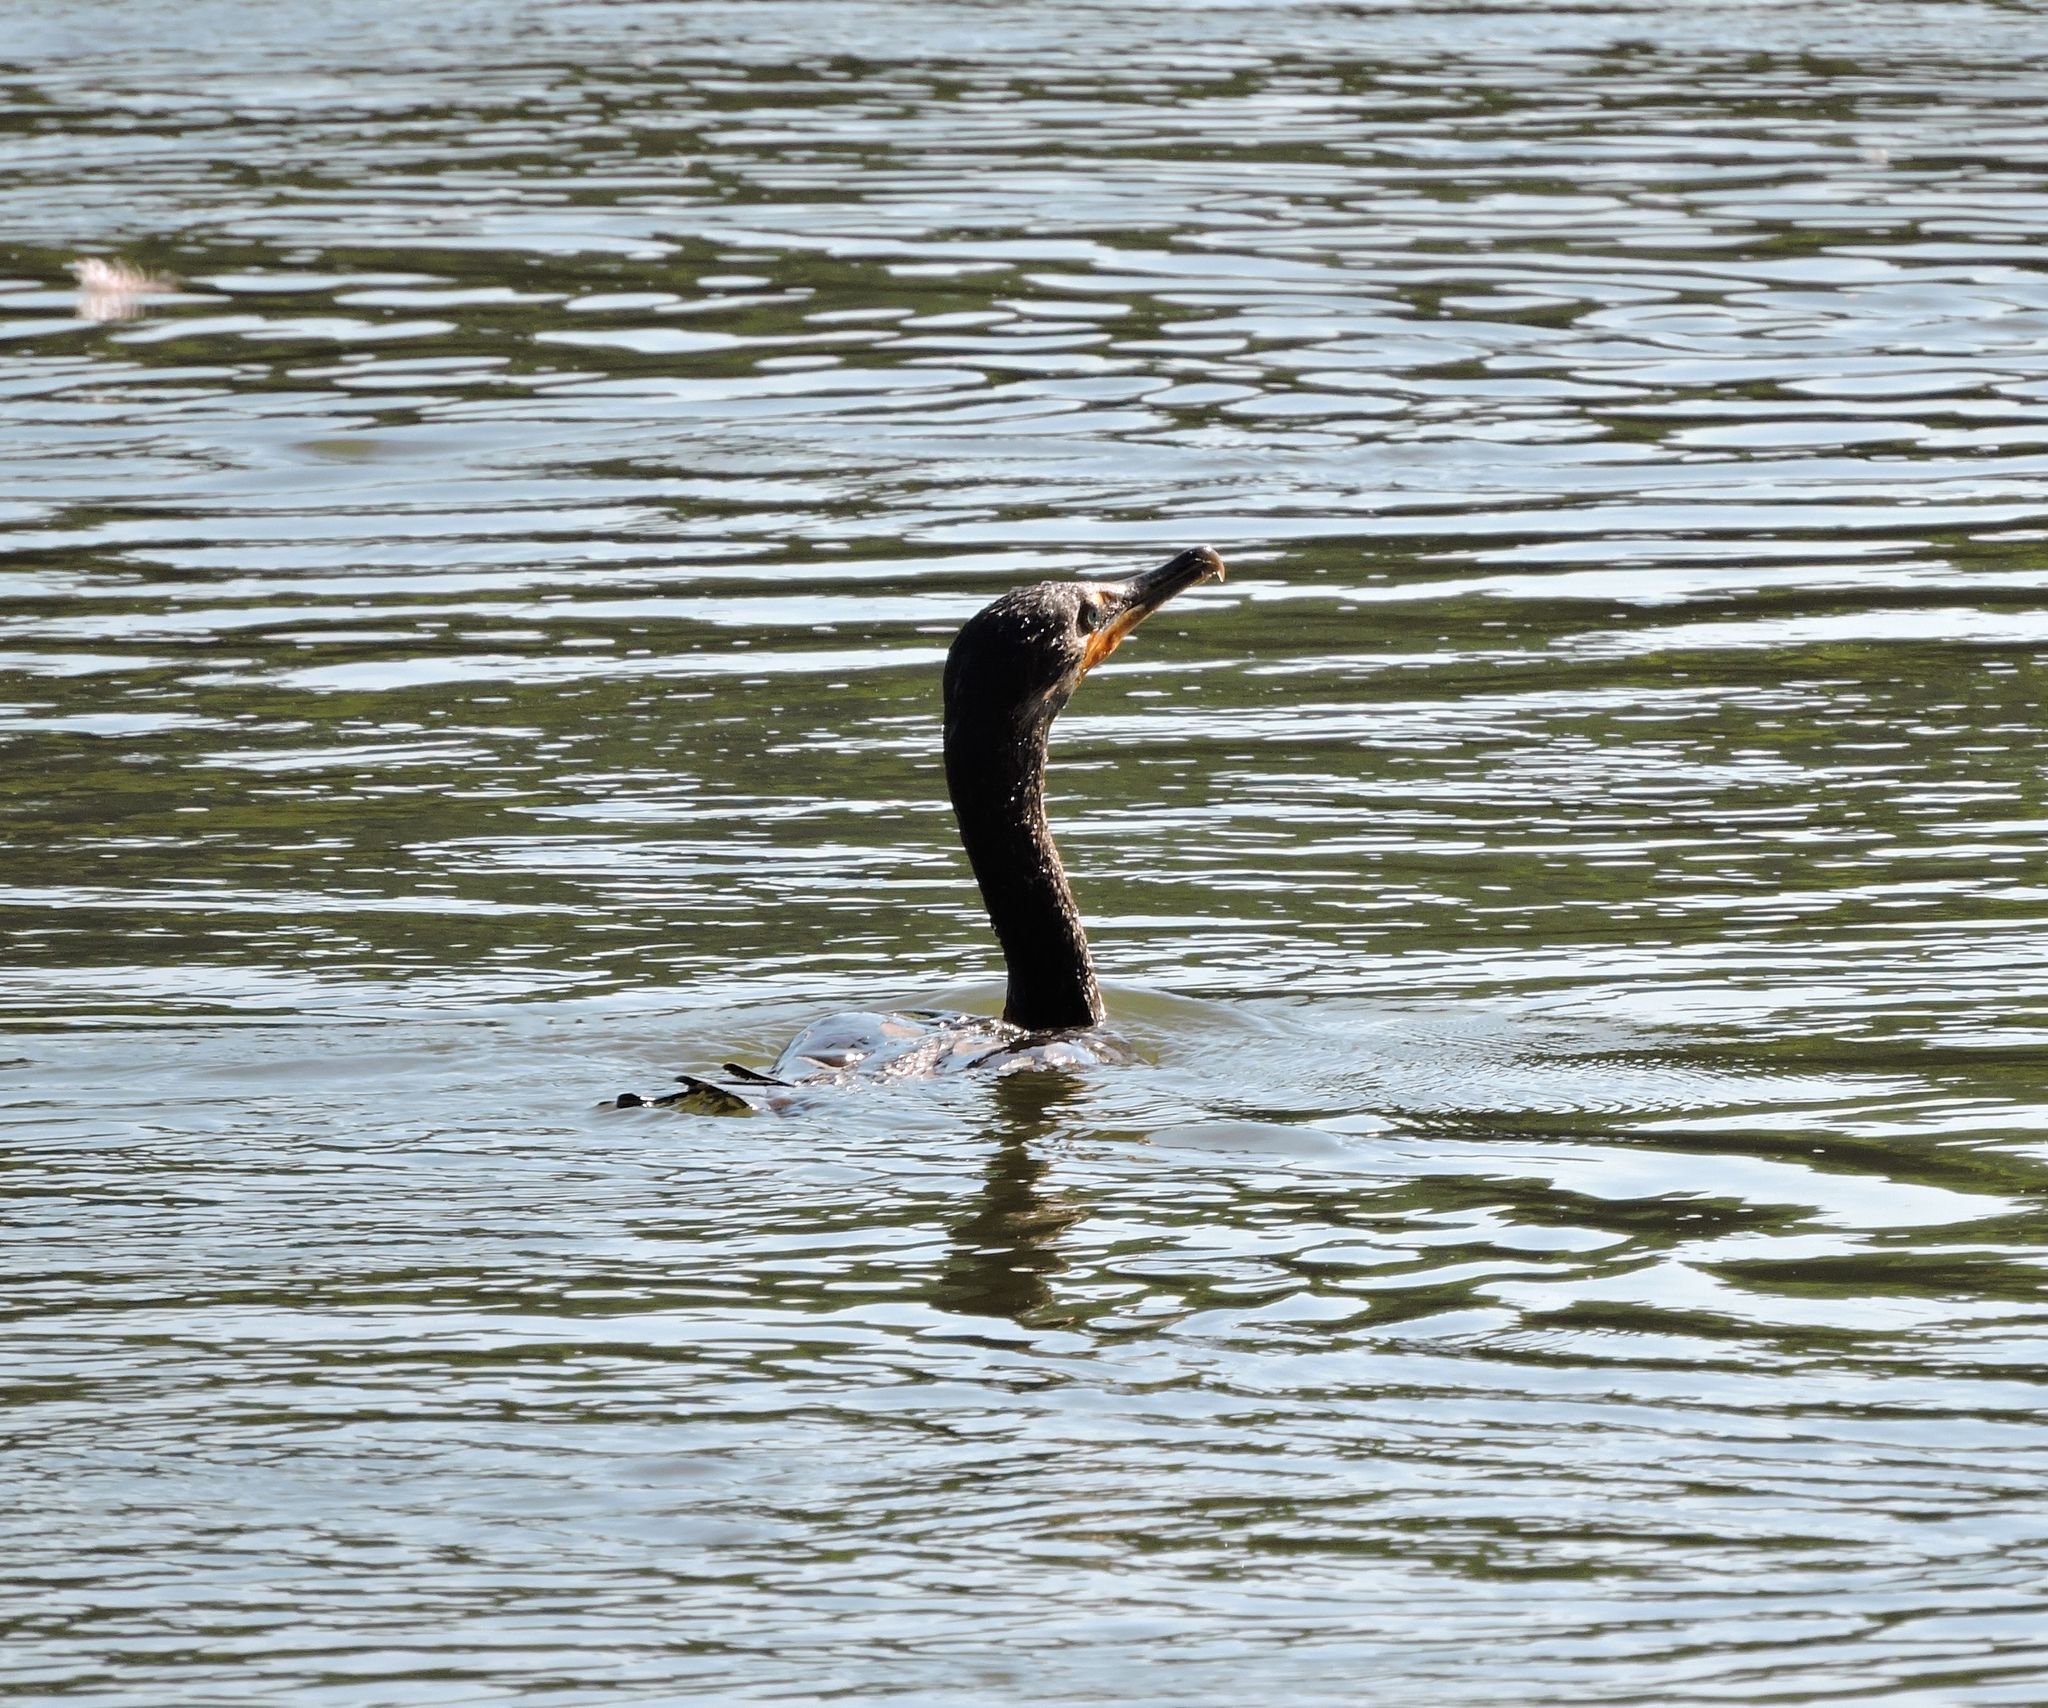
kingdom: Animalia
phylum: Chordata
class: Aves
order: Suliformes
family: Phalacrocoracidae
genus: Phalacrocorax
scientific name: Phalacrocorax auritus
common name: Double-crested cormorant
